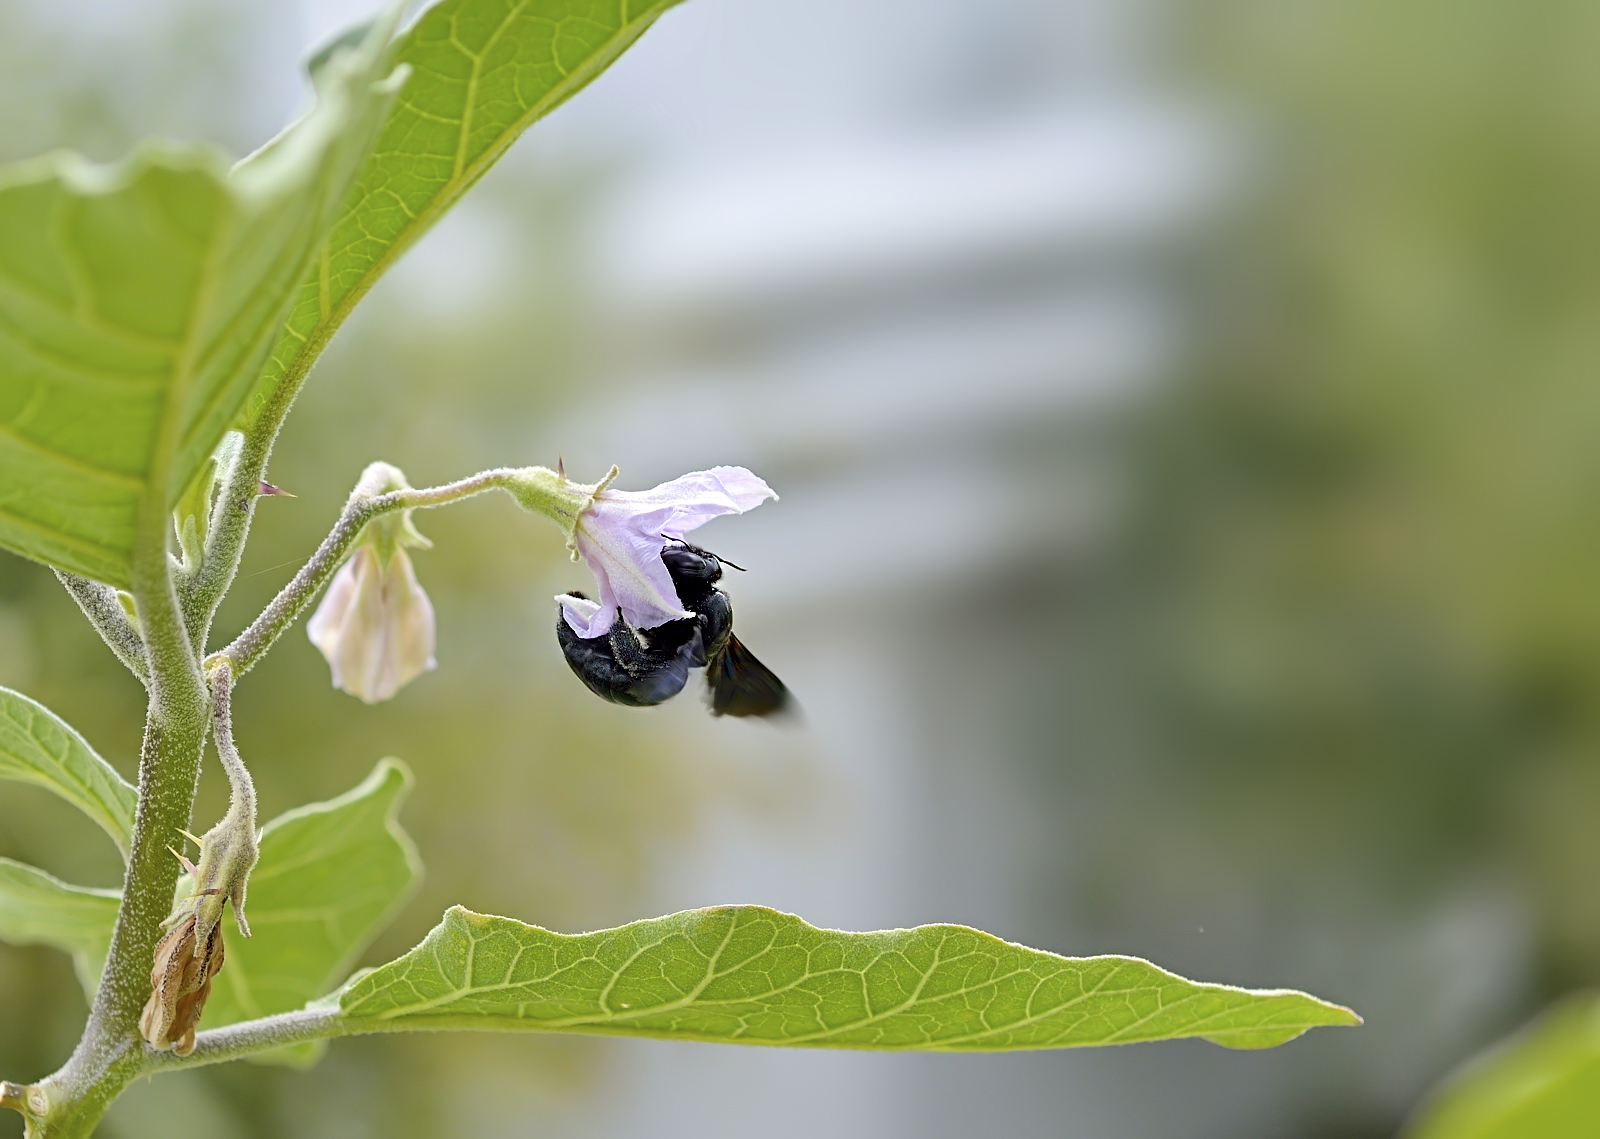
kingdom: Animalia
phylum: Arthropoda
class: Insecta
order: Hymenoptera
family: Apidae
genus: Xylocopa
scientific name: Xylocopa fenestrata
